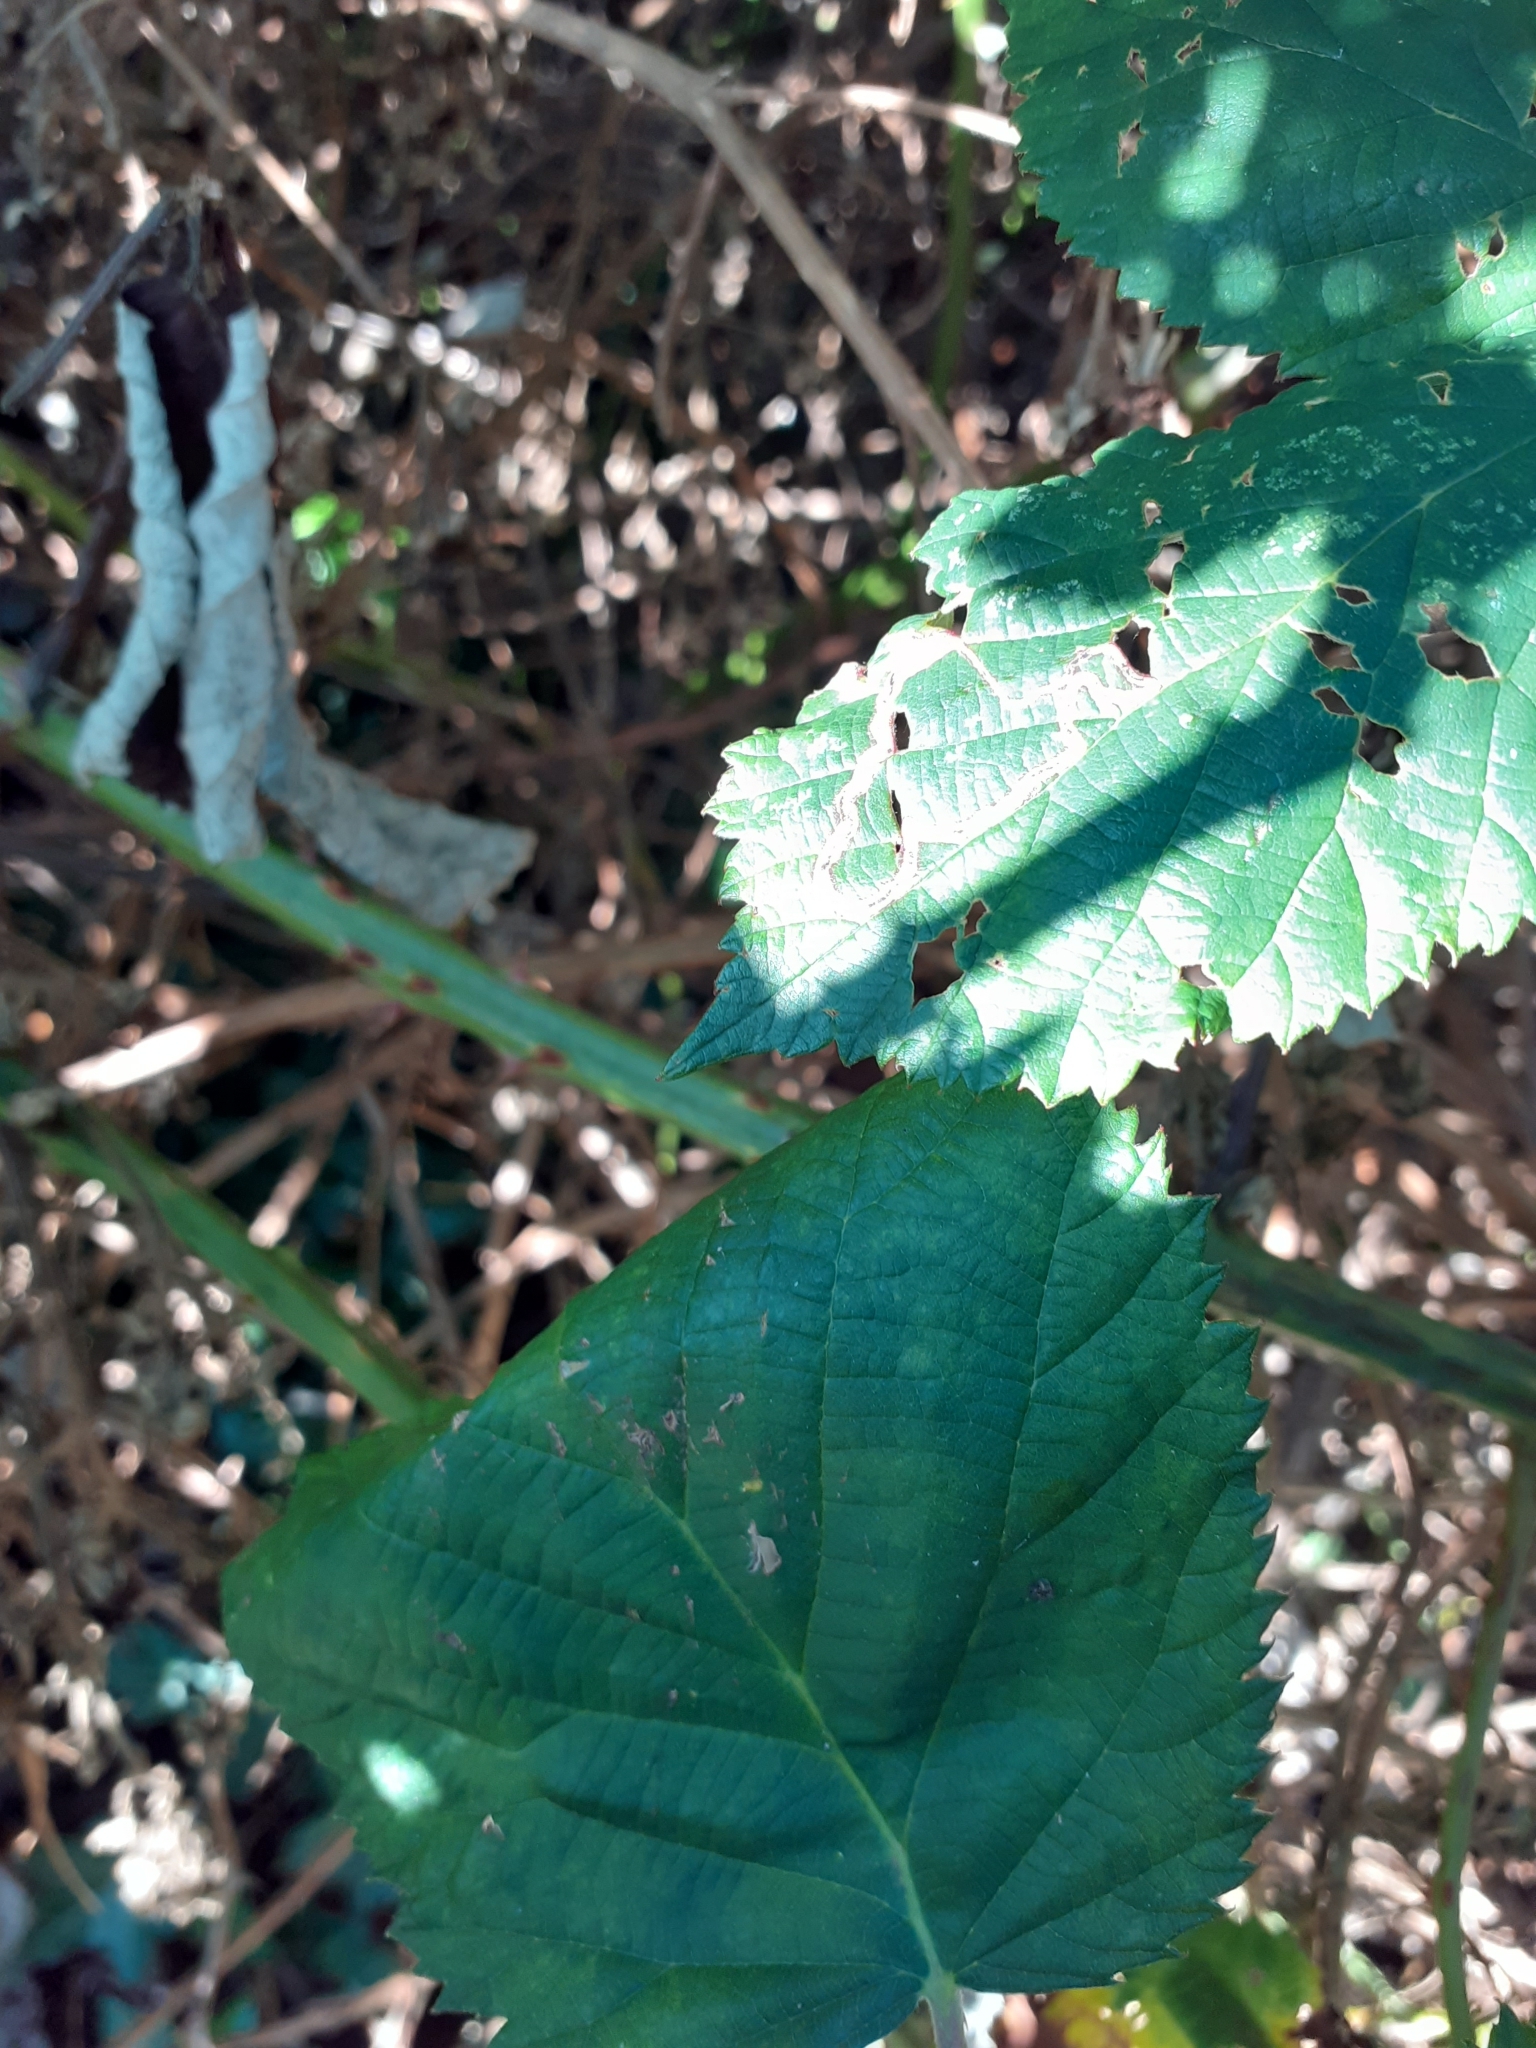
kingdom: Animalia
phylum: Arthropoda
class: Insecta
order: Lepidoptera
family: Nepticulidae
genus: Stigmella
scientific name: Stigmella aurella
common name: Golden pigmy
